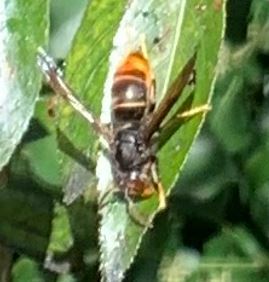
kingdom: Animalia
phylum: Arthropoda
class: Insecta
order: Hymenoptera
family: Vespidae
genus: Vespa
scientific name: Vespa velutina
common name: Asian hornet
